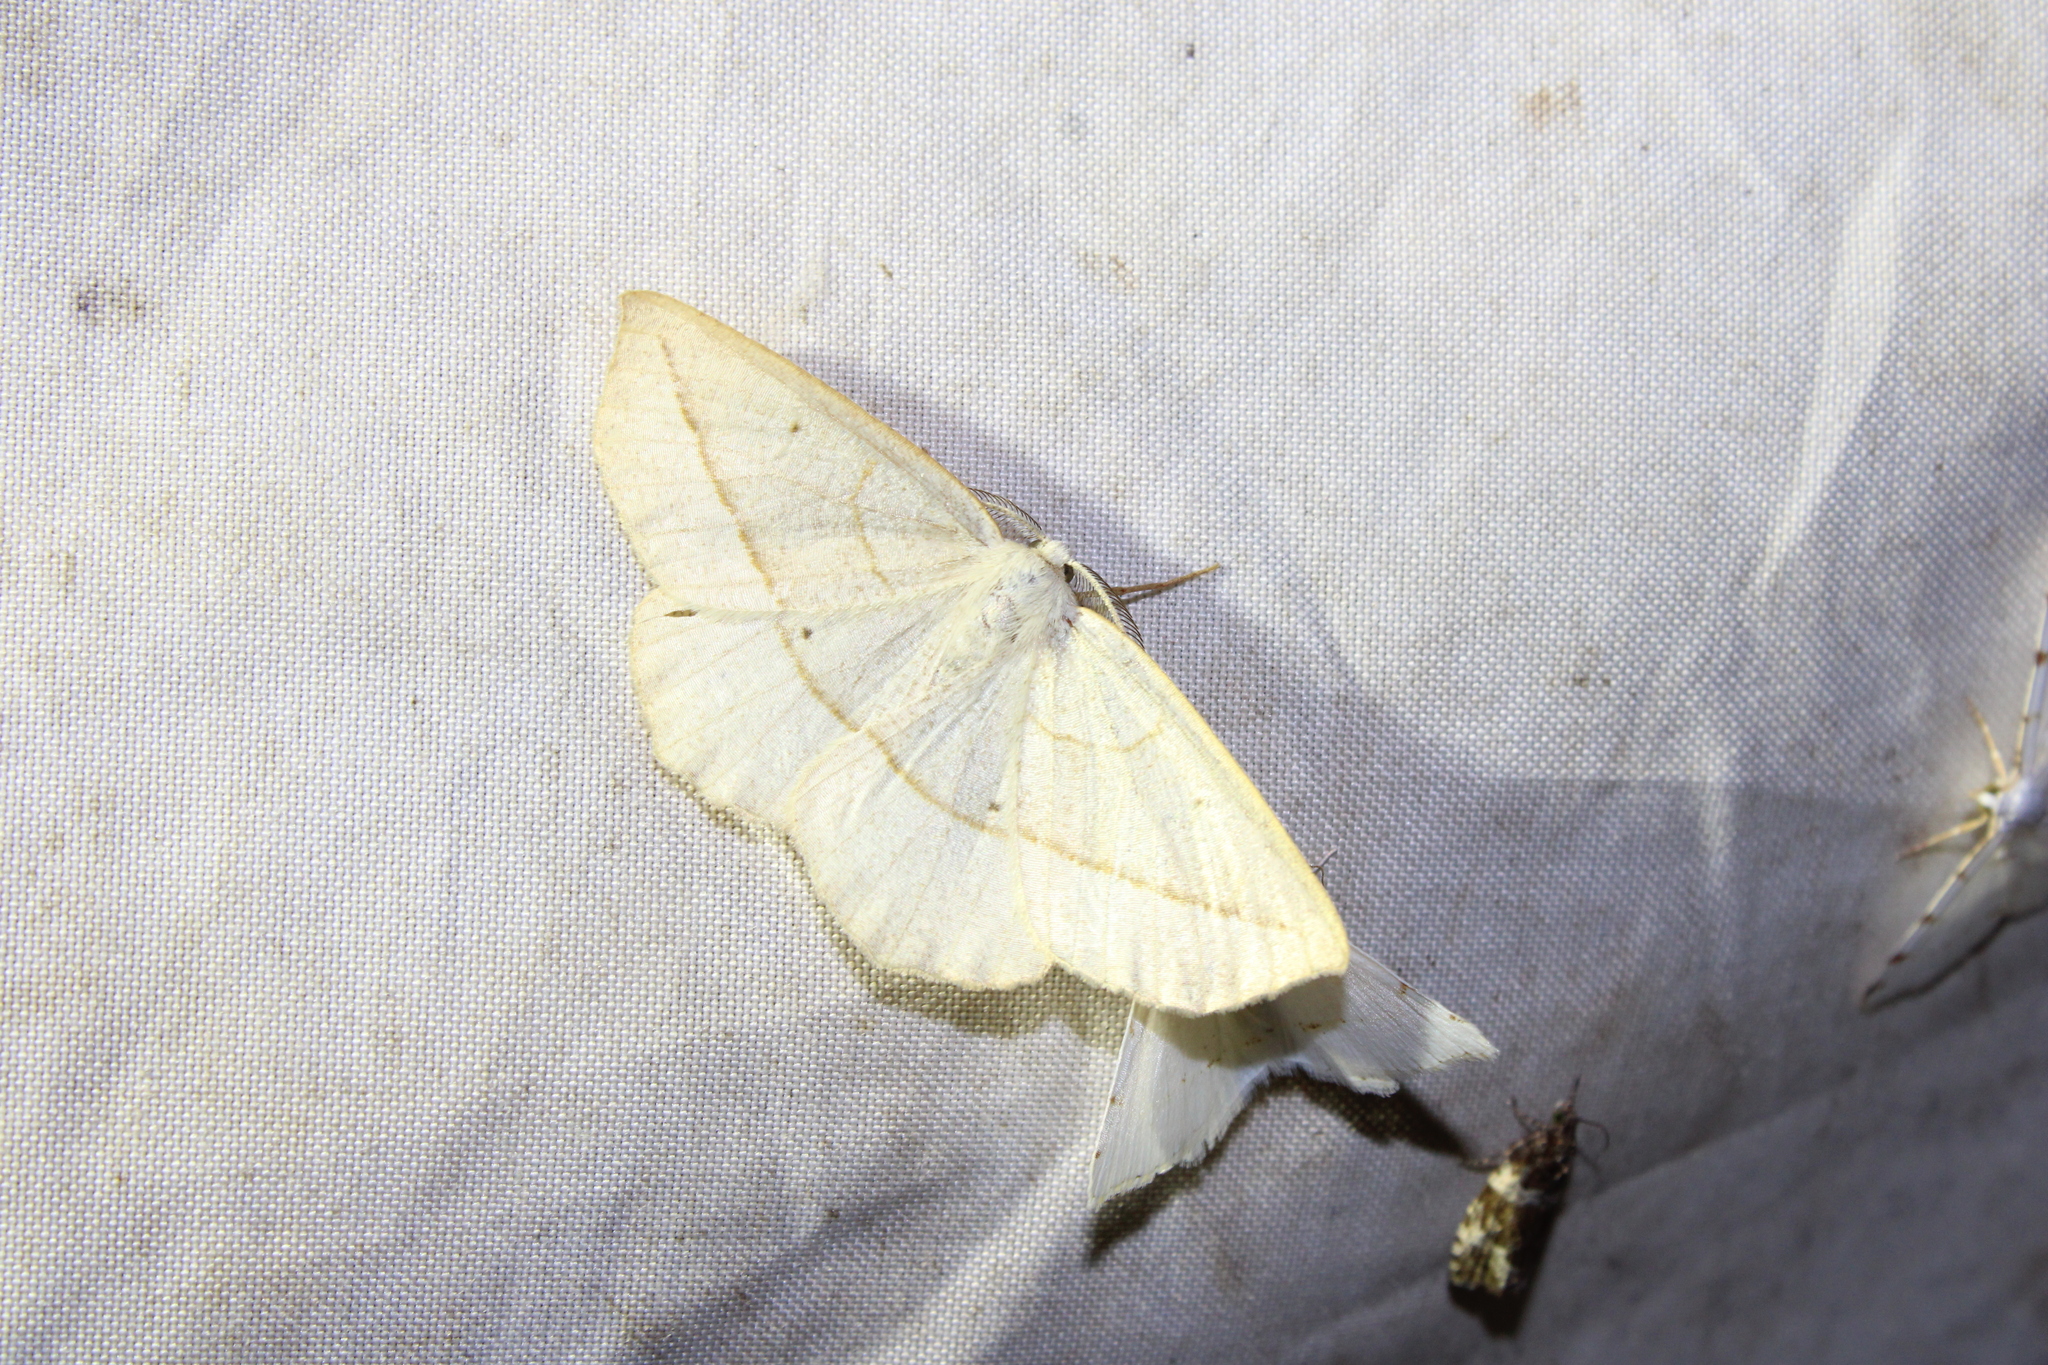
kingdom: Animalia
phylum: Arthropoda
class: Insecta
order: Lepidoptera
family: Geometridae
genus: Eusarca
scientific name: Eusarca confusaria
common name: Confused eusarca
